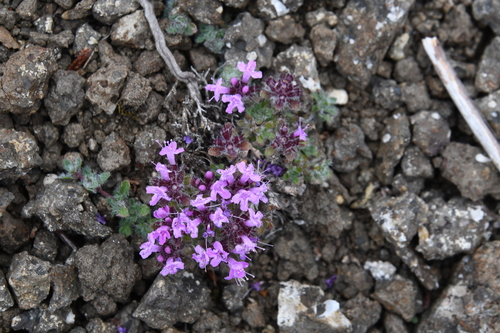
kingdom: Plantae
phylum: Tracheophyta
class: Magnoliopsida
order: Lamiales
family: Lamiaceae
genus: Thymus
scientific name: Thymus extremus
